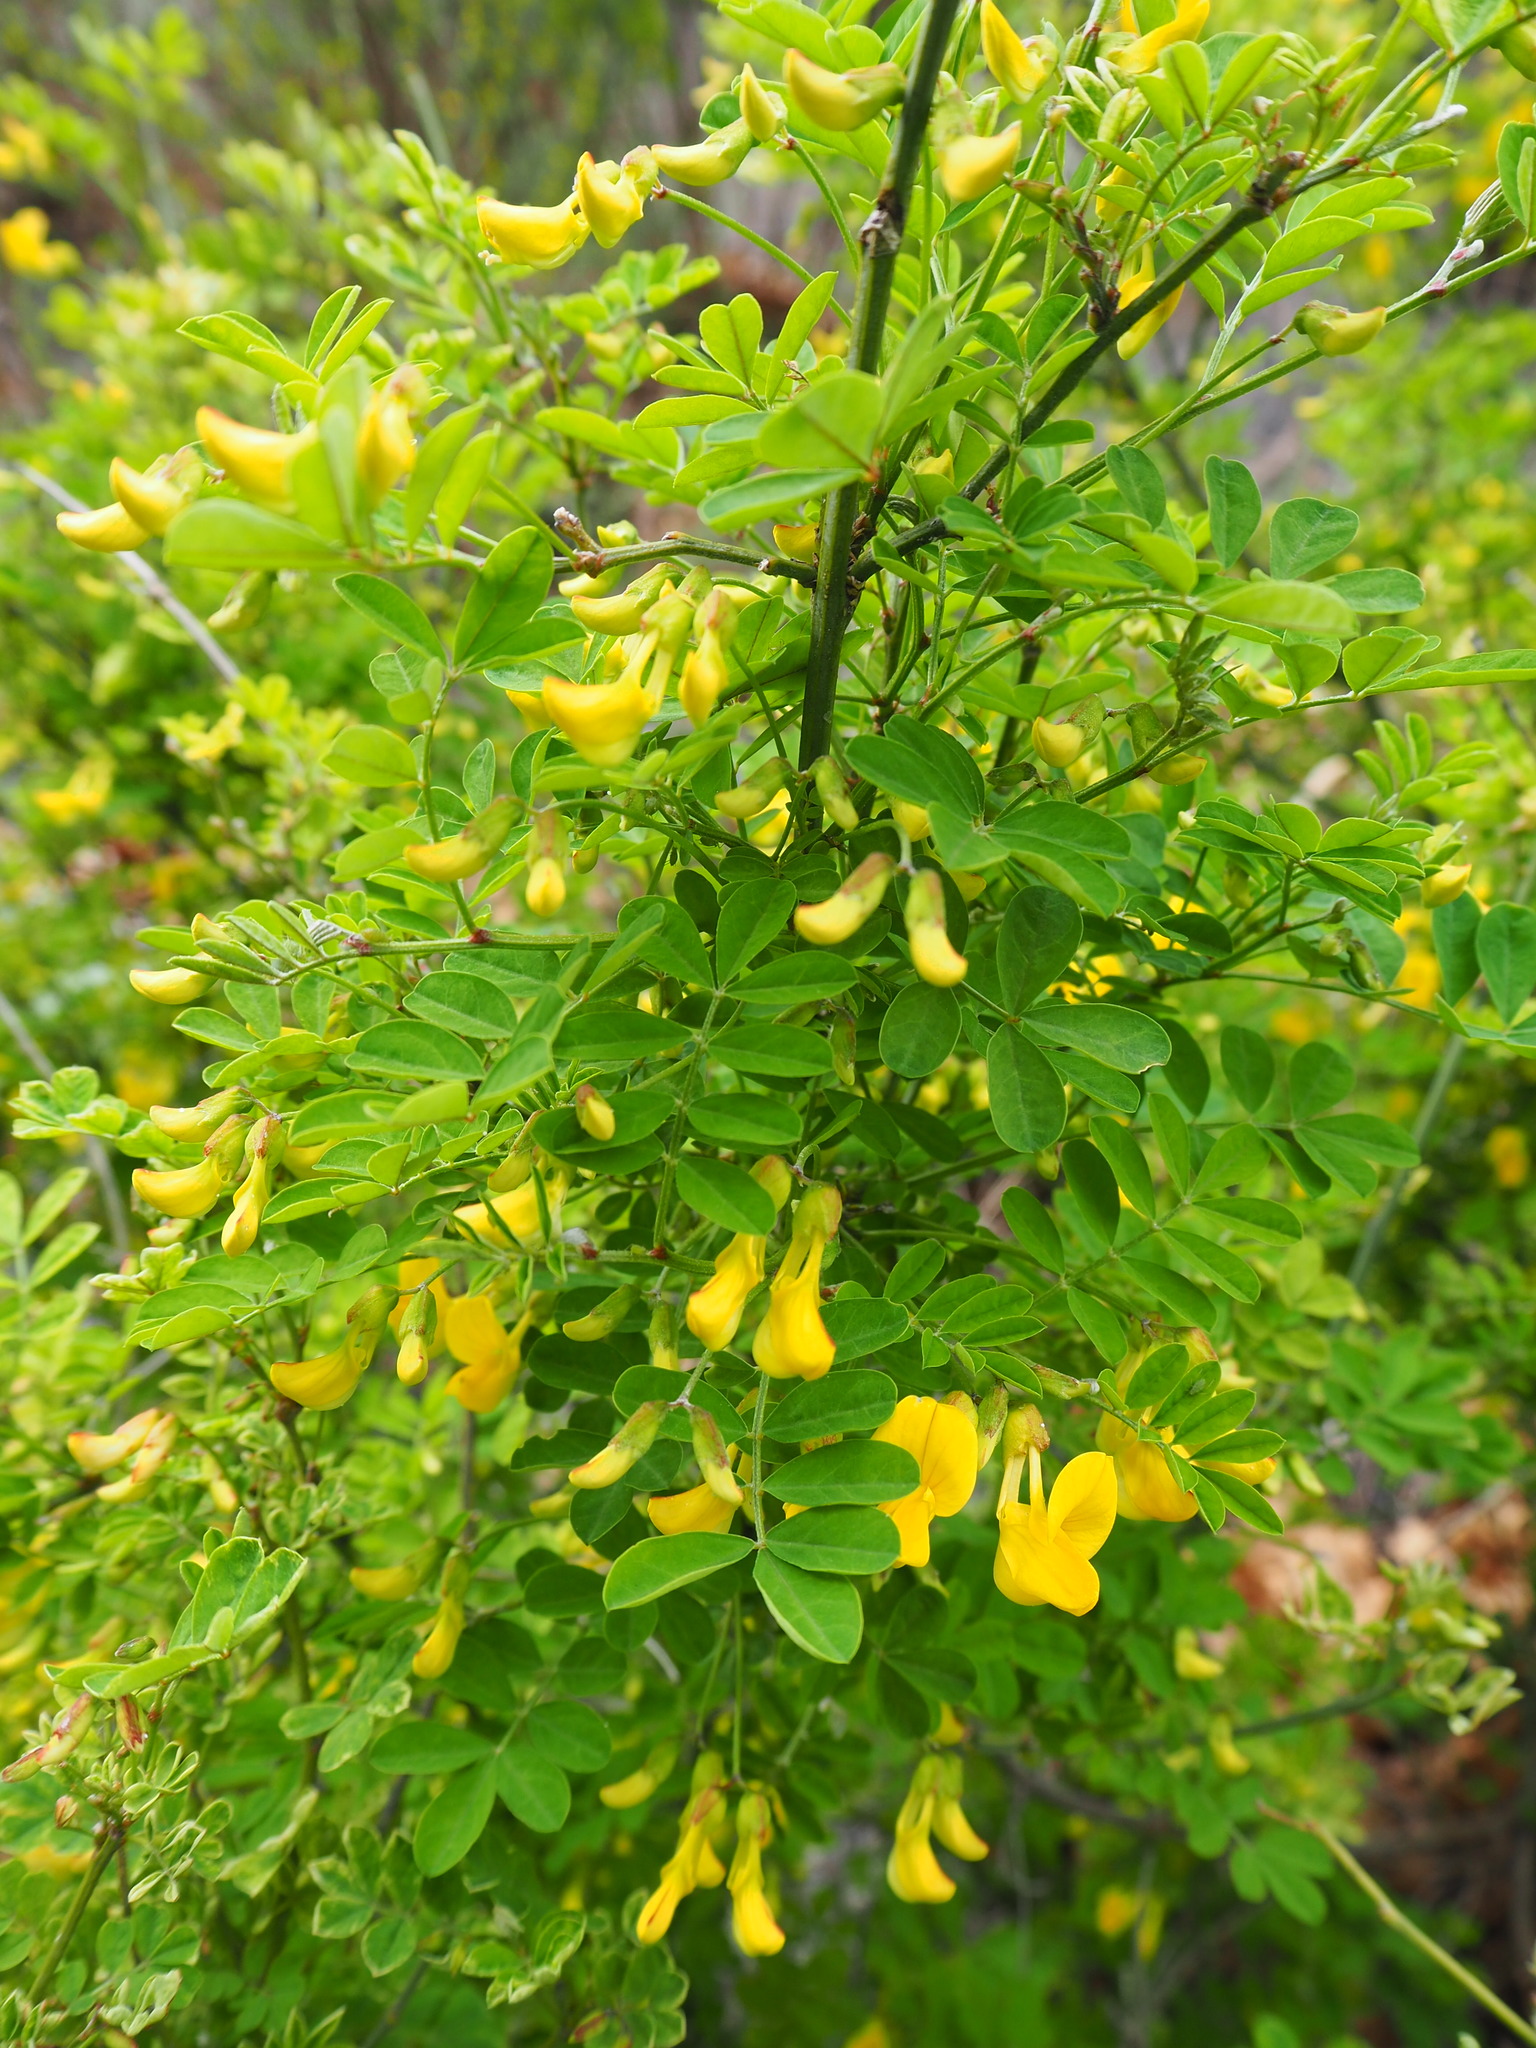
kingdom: Plantae
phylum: Tracheophyta
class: Magnoliopsida
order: Fabales
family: Fabaceae
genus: Hippocrepis
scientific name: Hippocrepis emerus
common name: Scorpion senna
